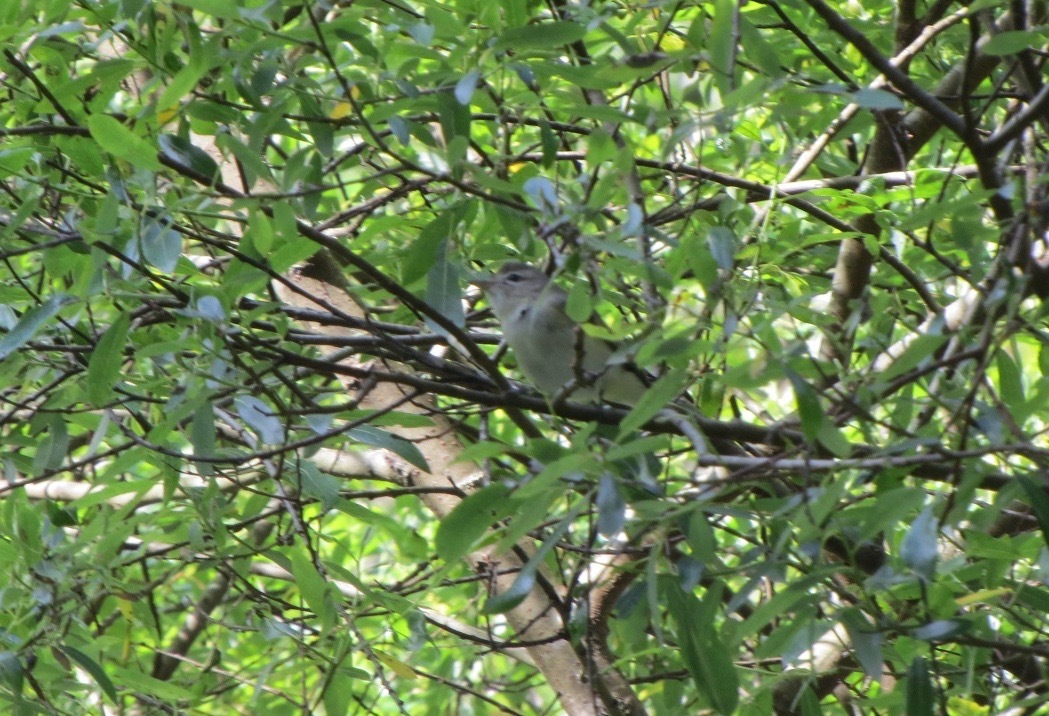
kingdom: Animalia
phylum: Chordata
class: Aves
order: Passeriformes
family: Vireonidae
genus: Vireo
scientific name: Vireo gilvus
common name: Warbling vireo
